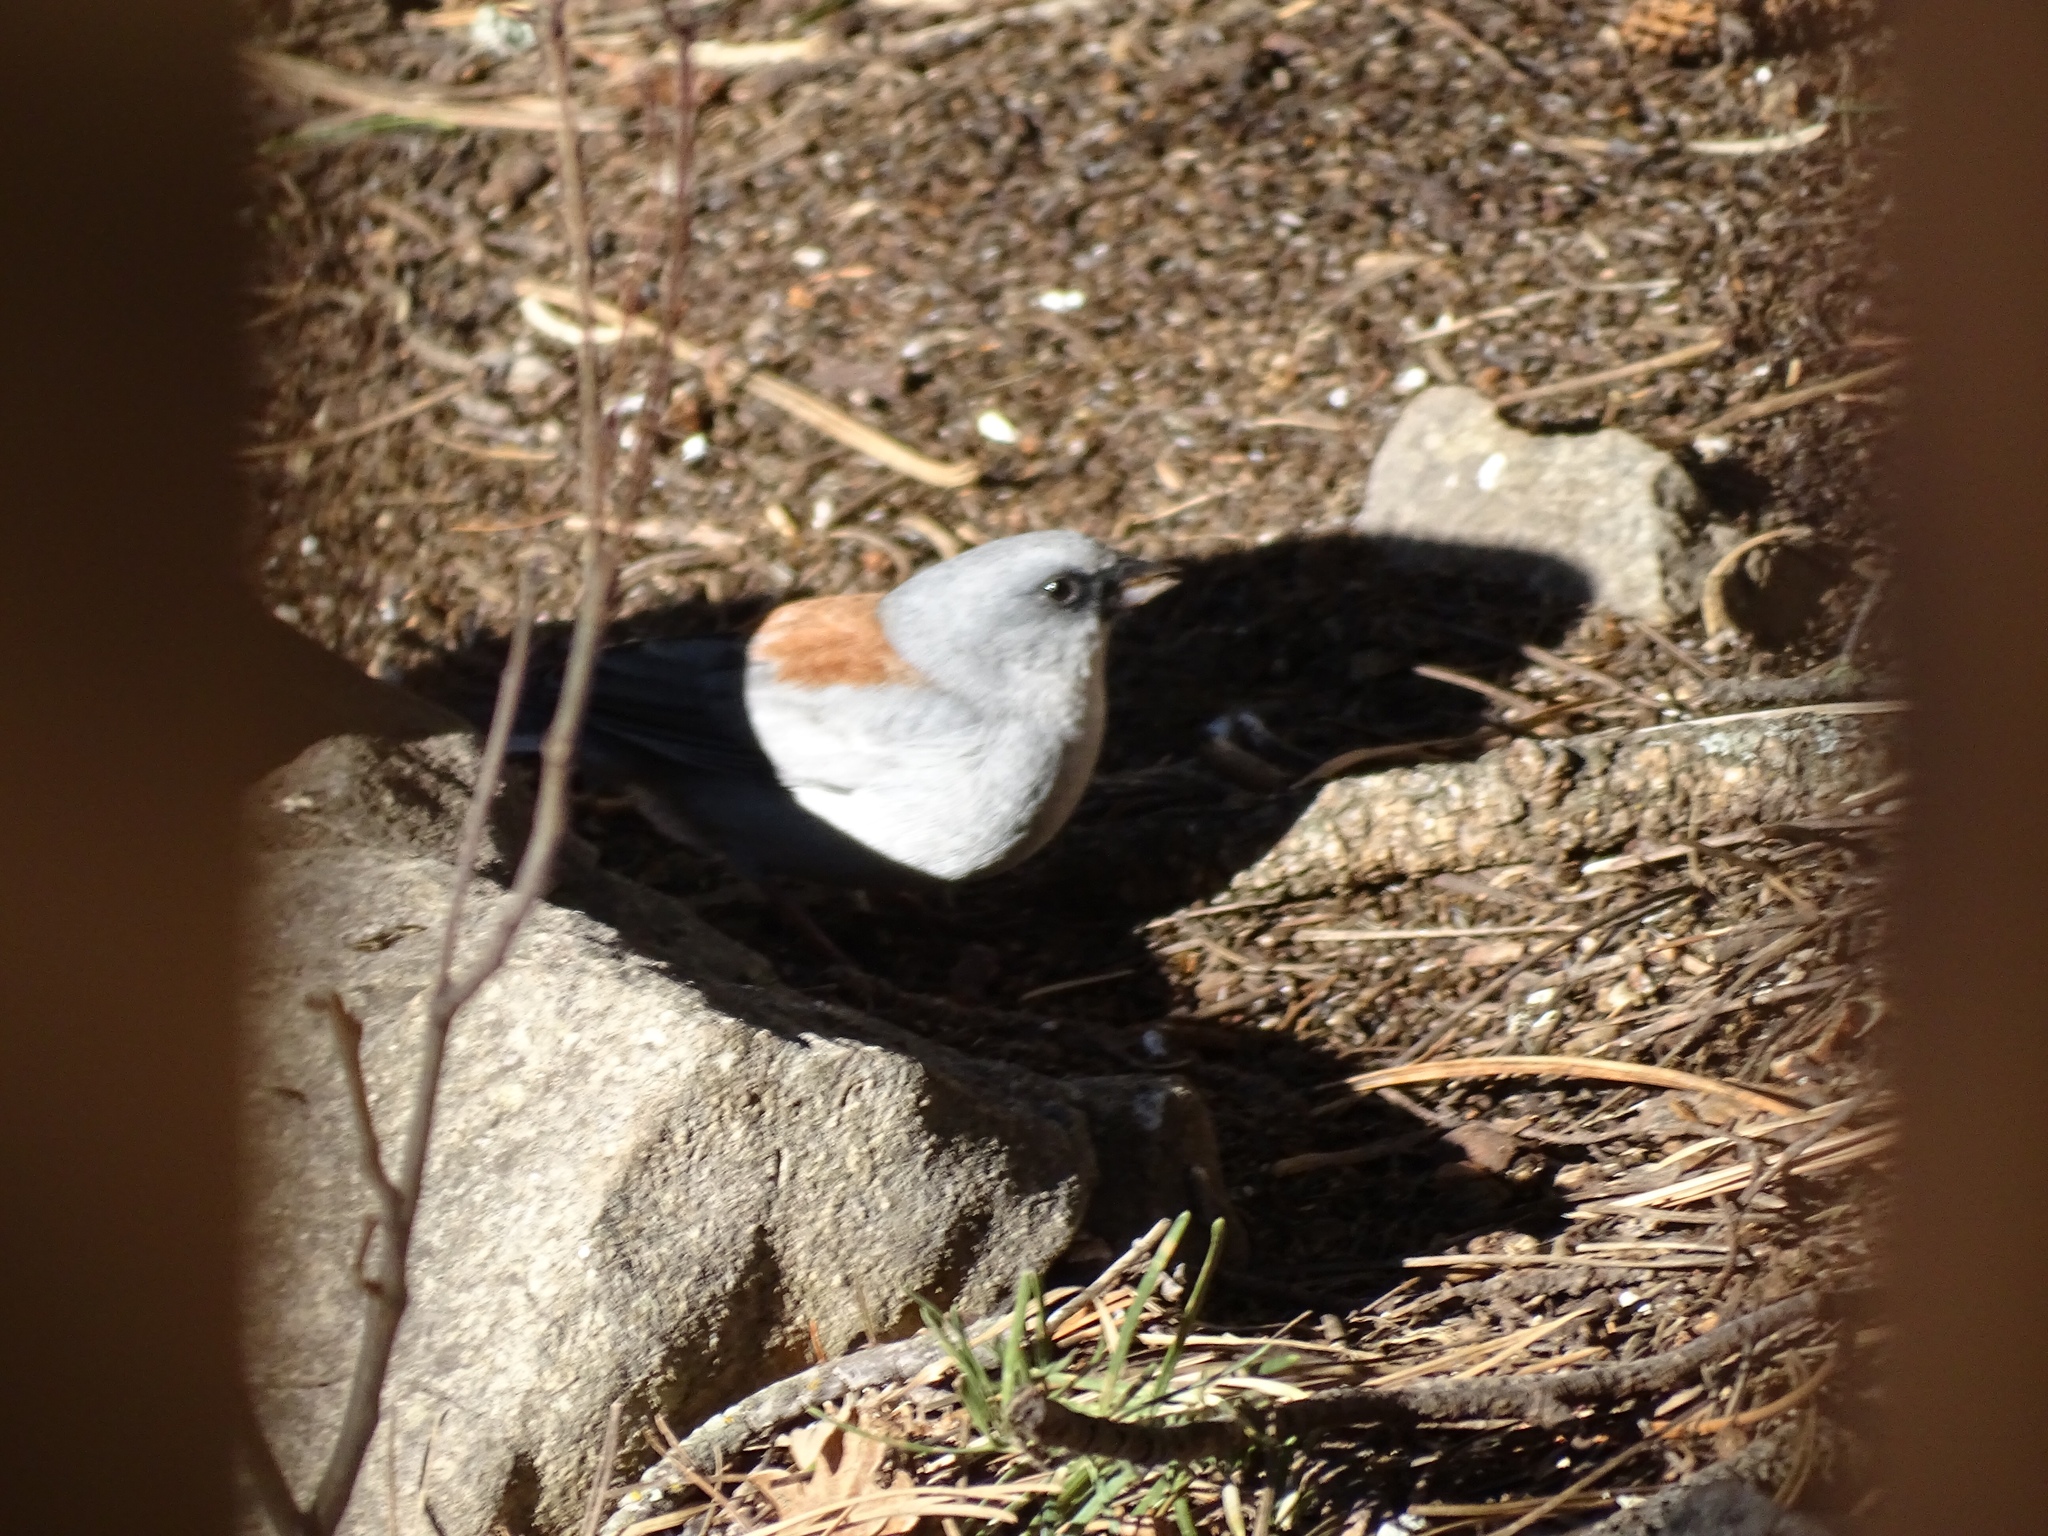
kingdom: Animalia
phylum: Chordata
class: Aves
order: Passeriformes
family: Passerellidae
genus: Junco
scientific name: Junco hyemalis
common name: Dark-eyed junco
